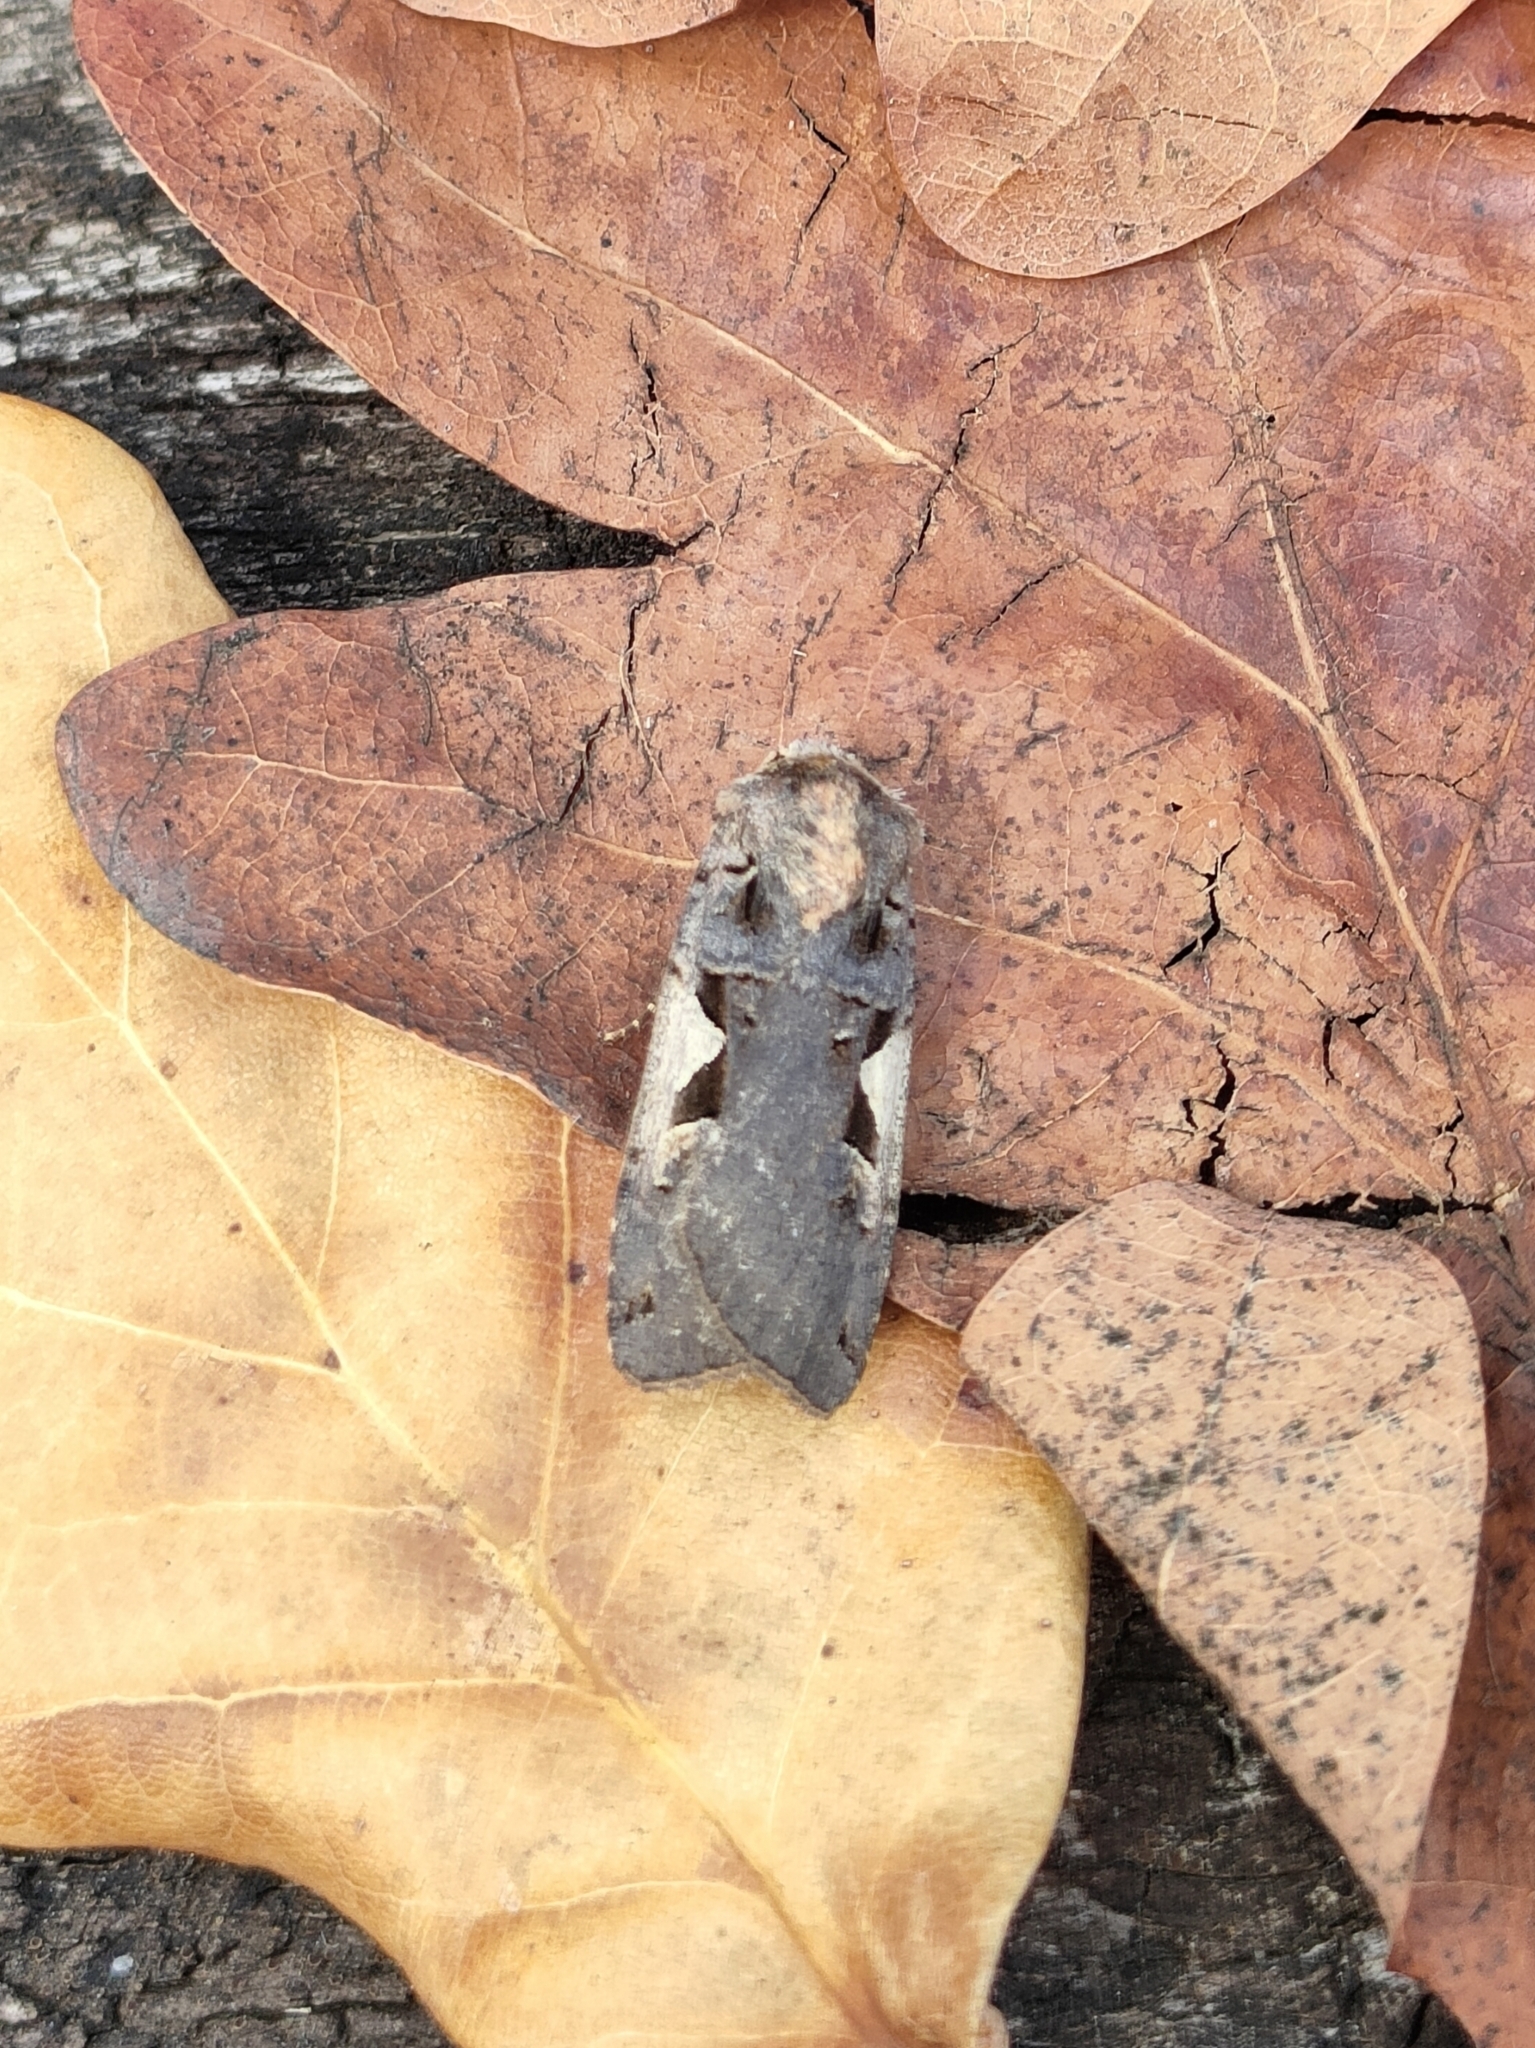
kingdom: Animalia
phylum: Arthropoda
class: Insecta
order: Lepidoptera
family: Noctuidae
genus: Xestia
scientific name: Xestia c-nigrum
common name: Setaceous hebrew character
